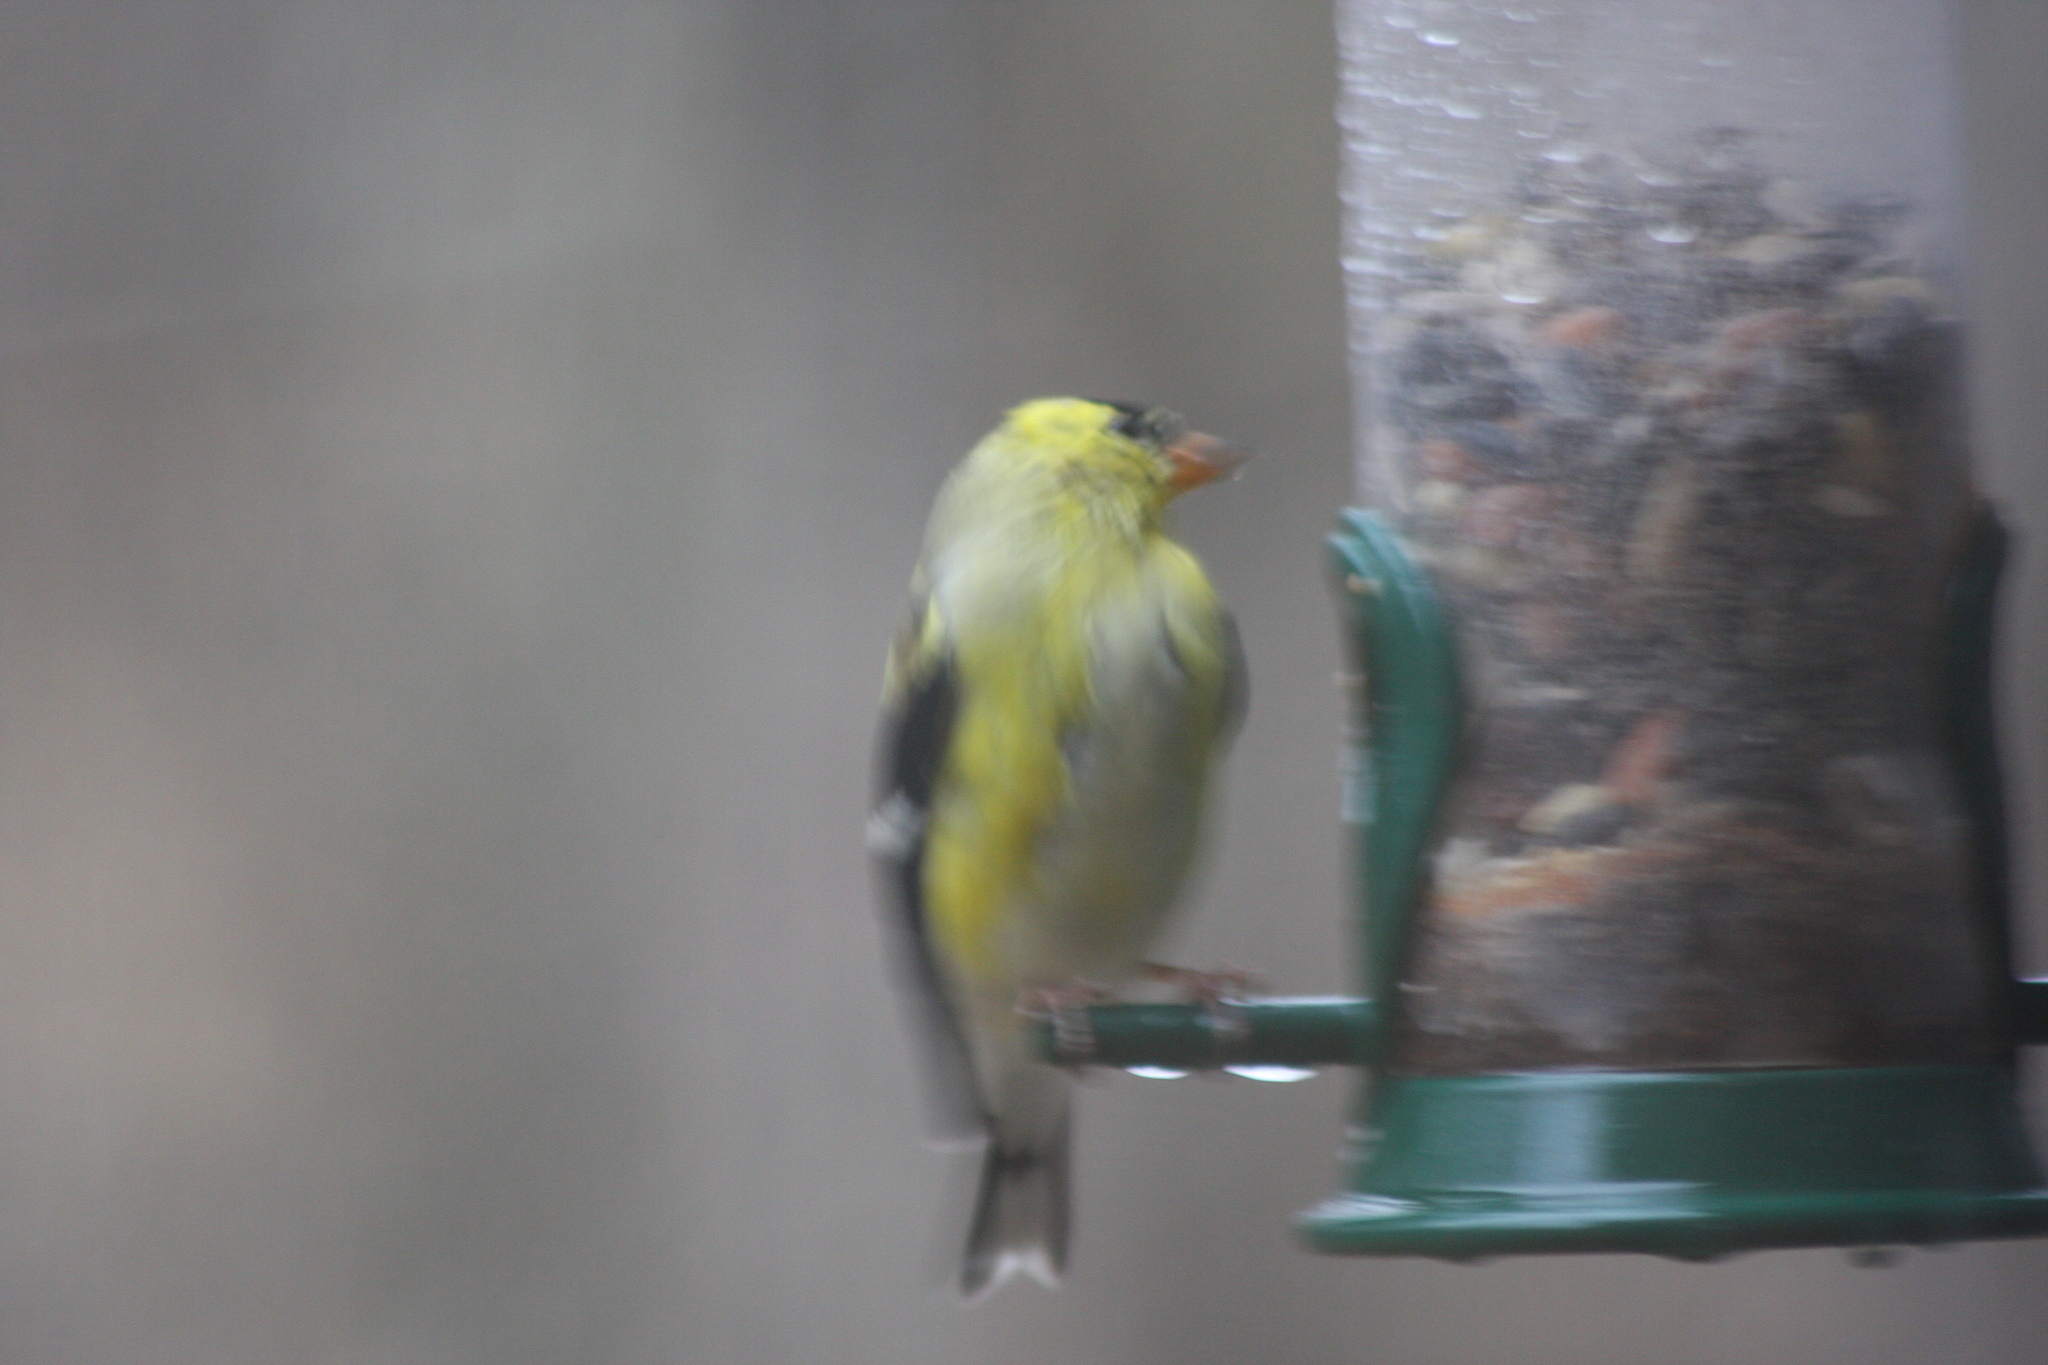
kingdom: Animalia
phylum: Chordata
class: Aves
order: Passeriformes
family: Fringillidae
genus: Spinus
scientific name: Spinus tristis
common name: American goldfinch
